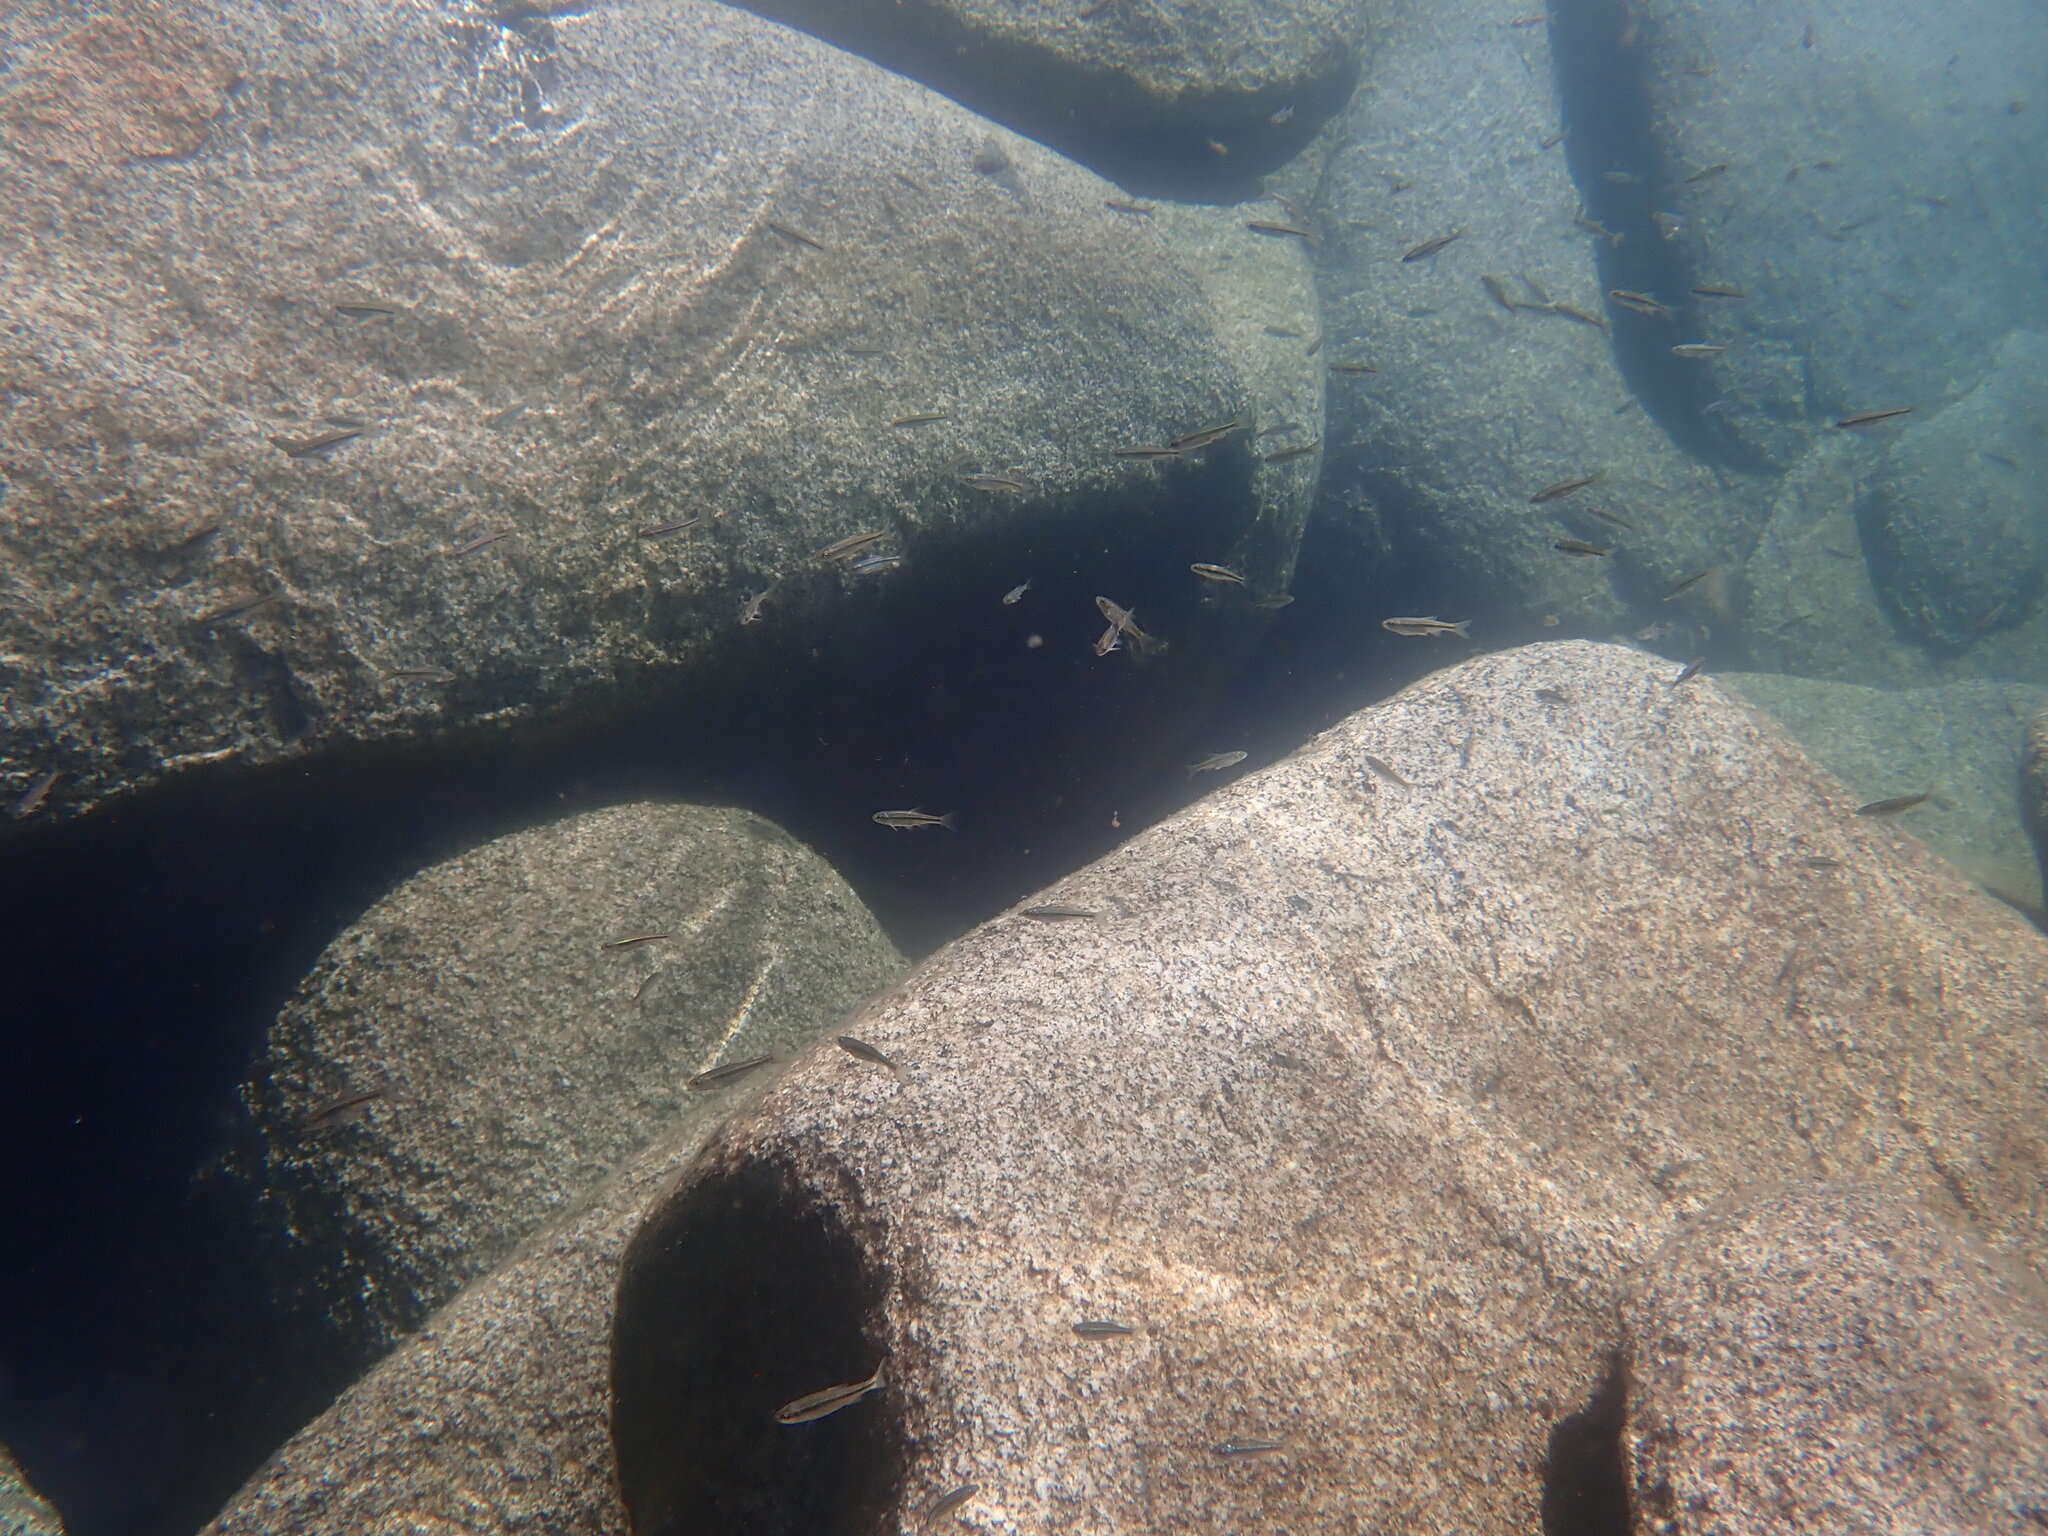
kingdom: Animalia
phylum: Chordata
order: Cypriniformes
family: Cyprinidae
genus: Richardsonius
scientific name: Richardsonius egregius
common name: Lahontan redside
